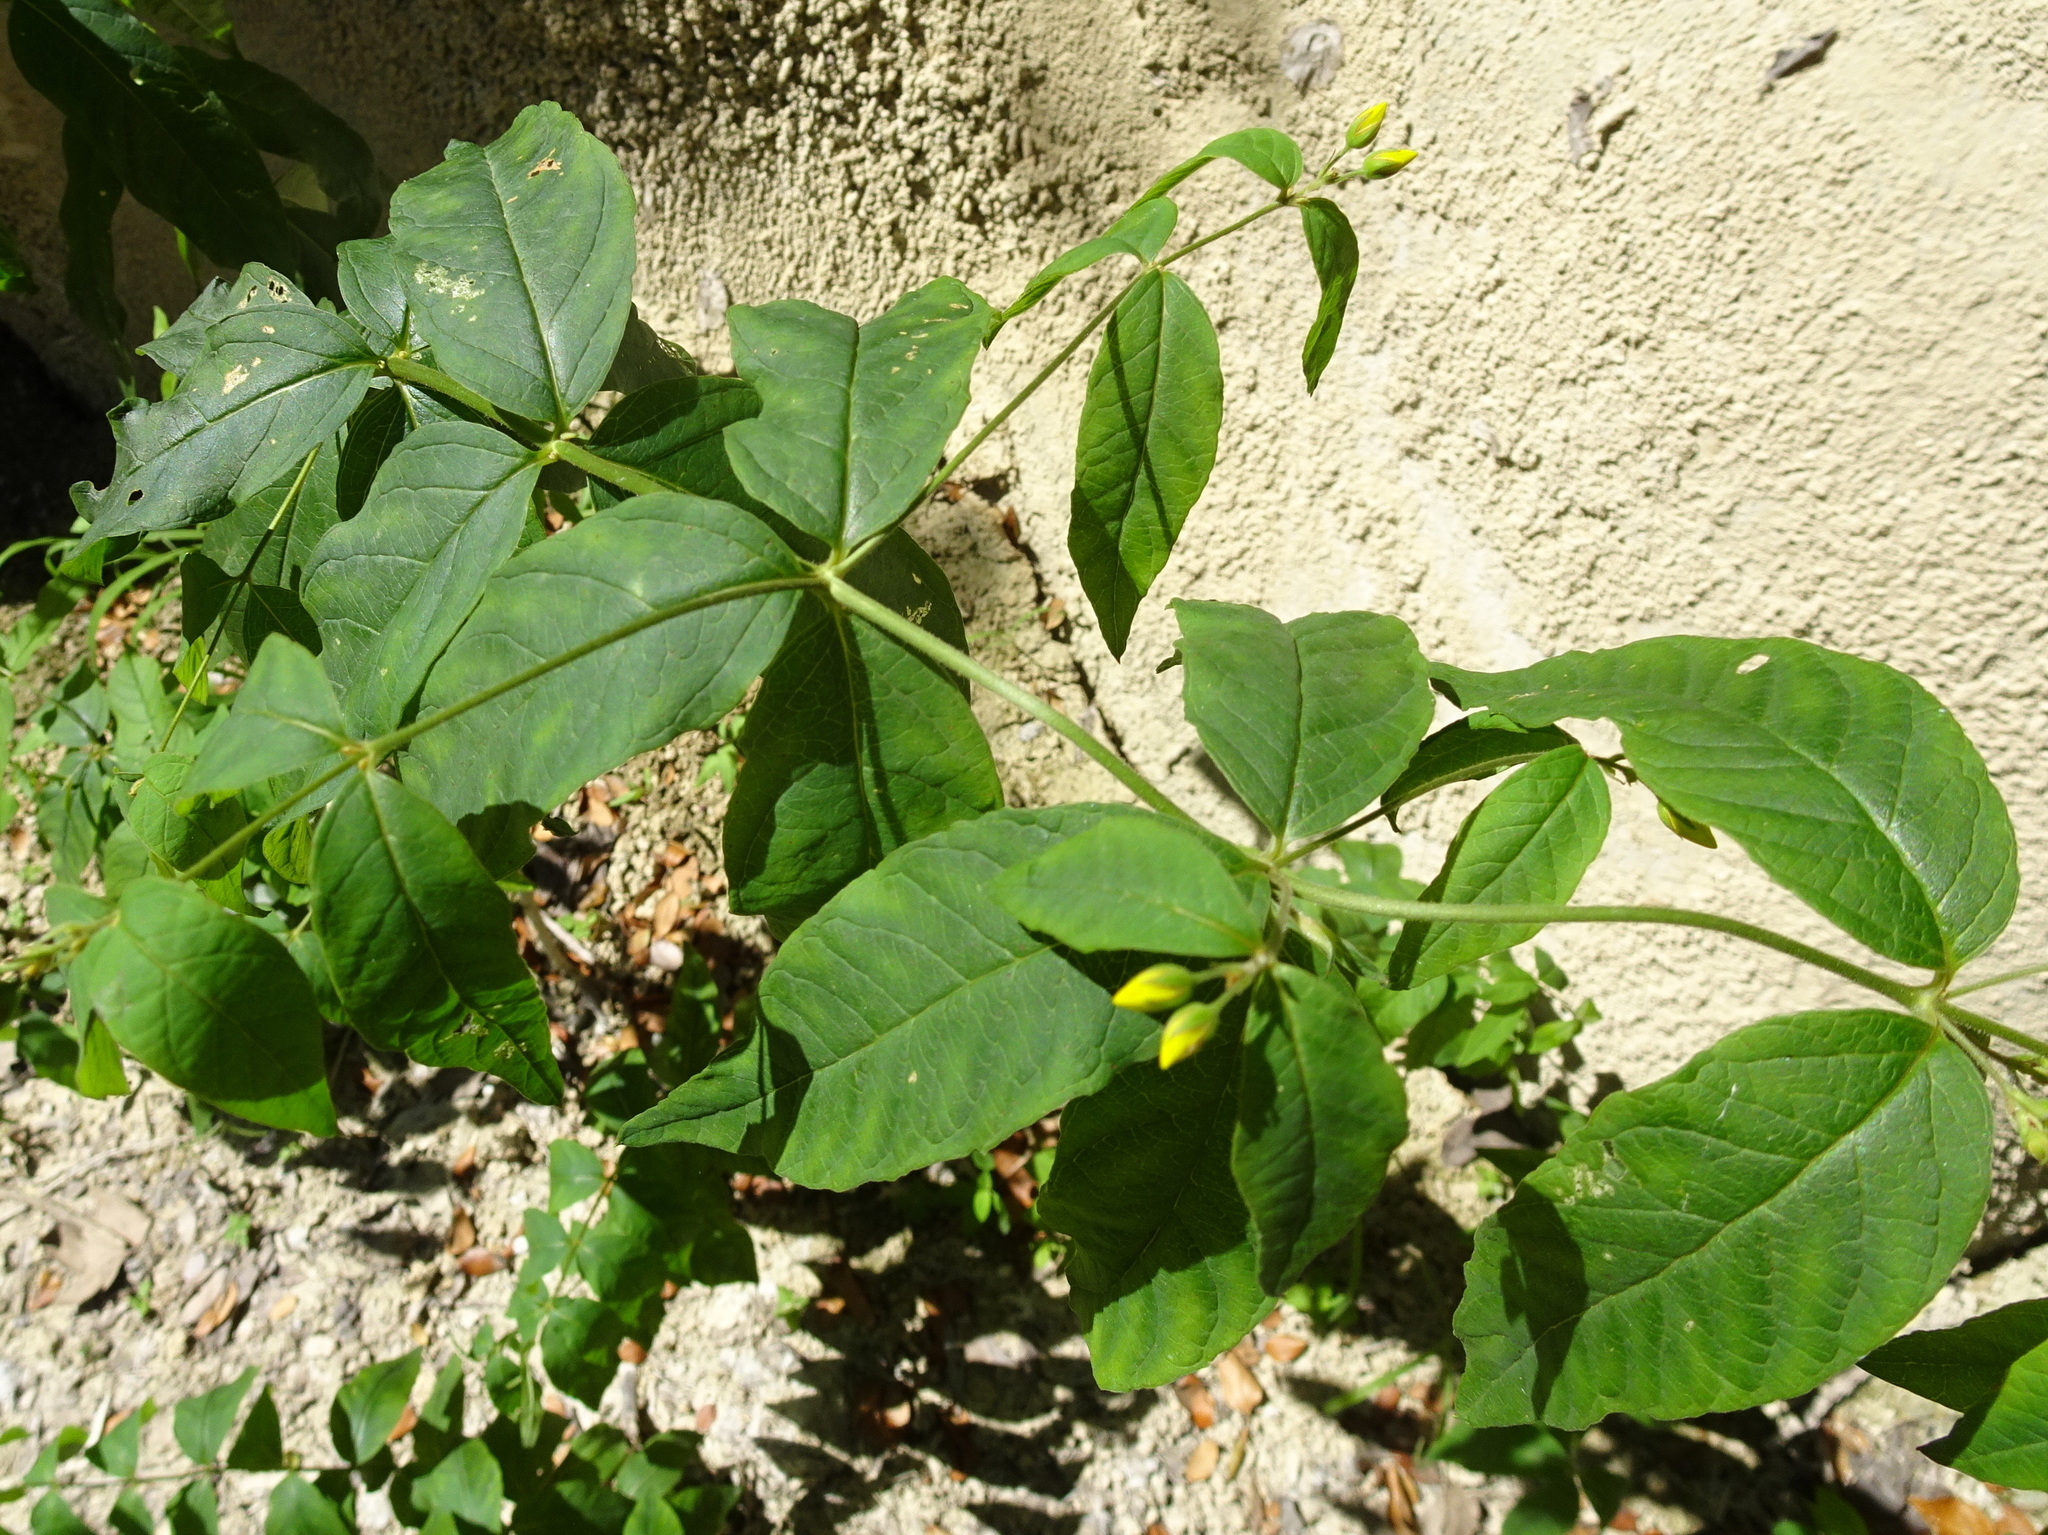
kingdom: Plantae
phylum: Tracheophyta
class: Magnoliopsida
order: Ericales
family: Primulaceae
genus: Lysimachia
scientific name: Lysimachia vulgaris
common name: Yellow loosestrife
